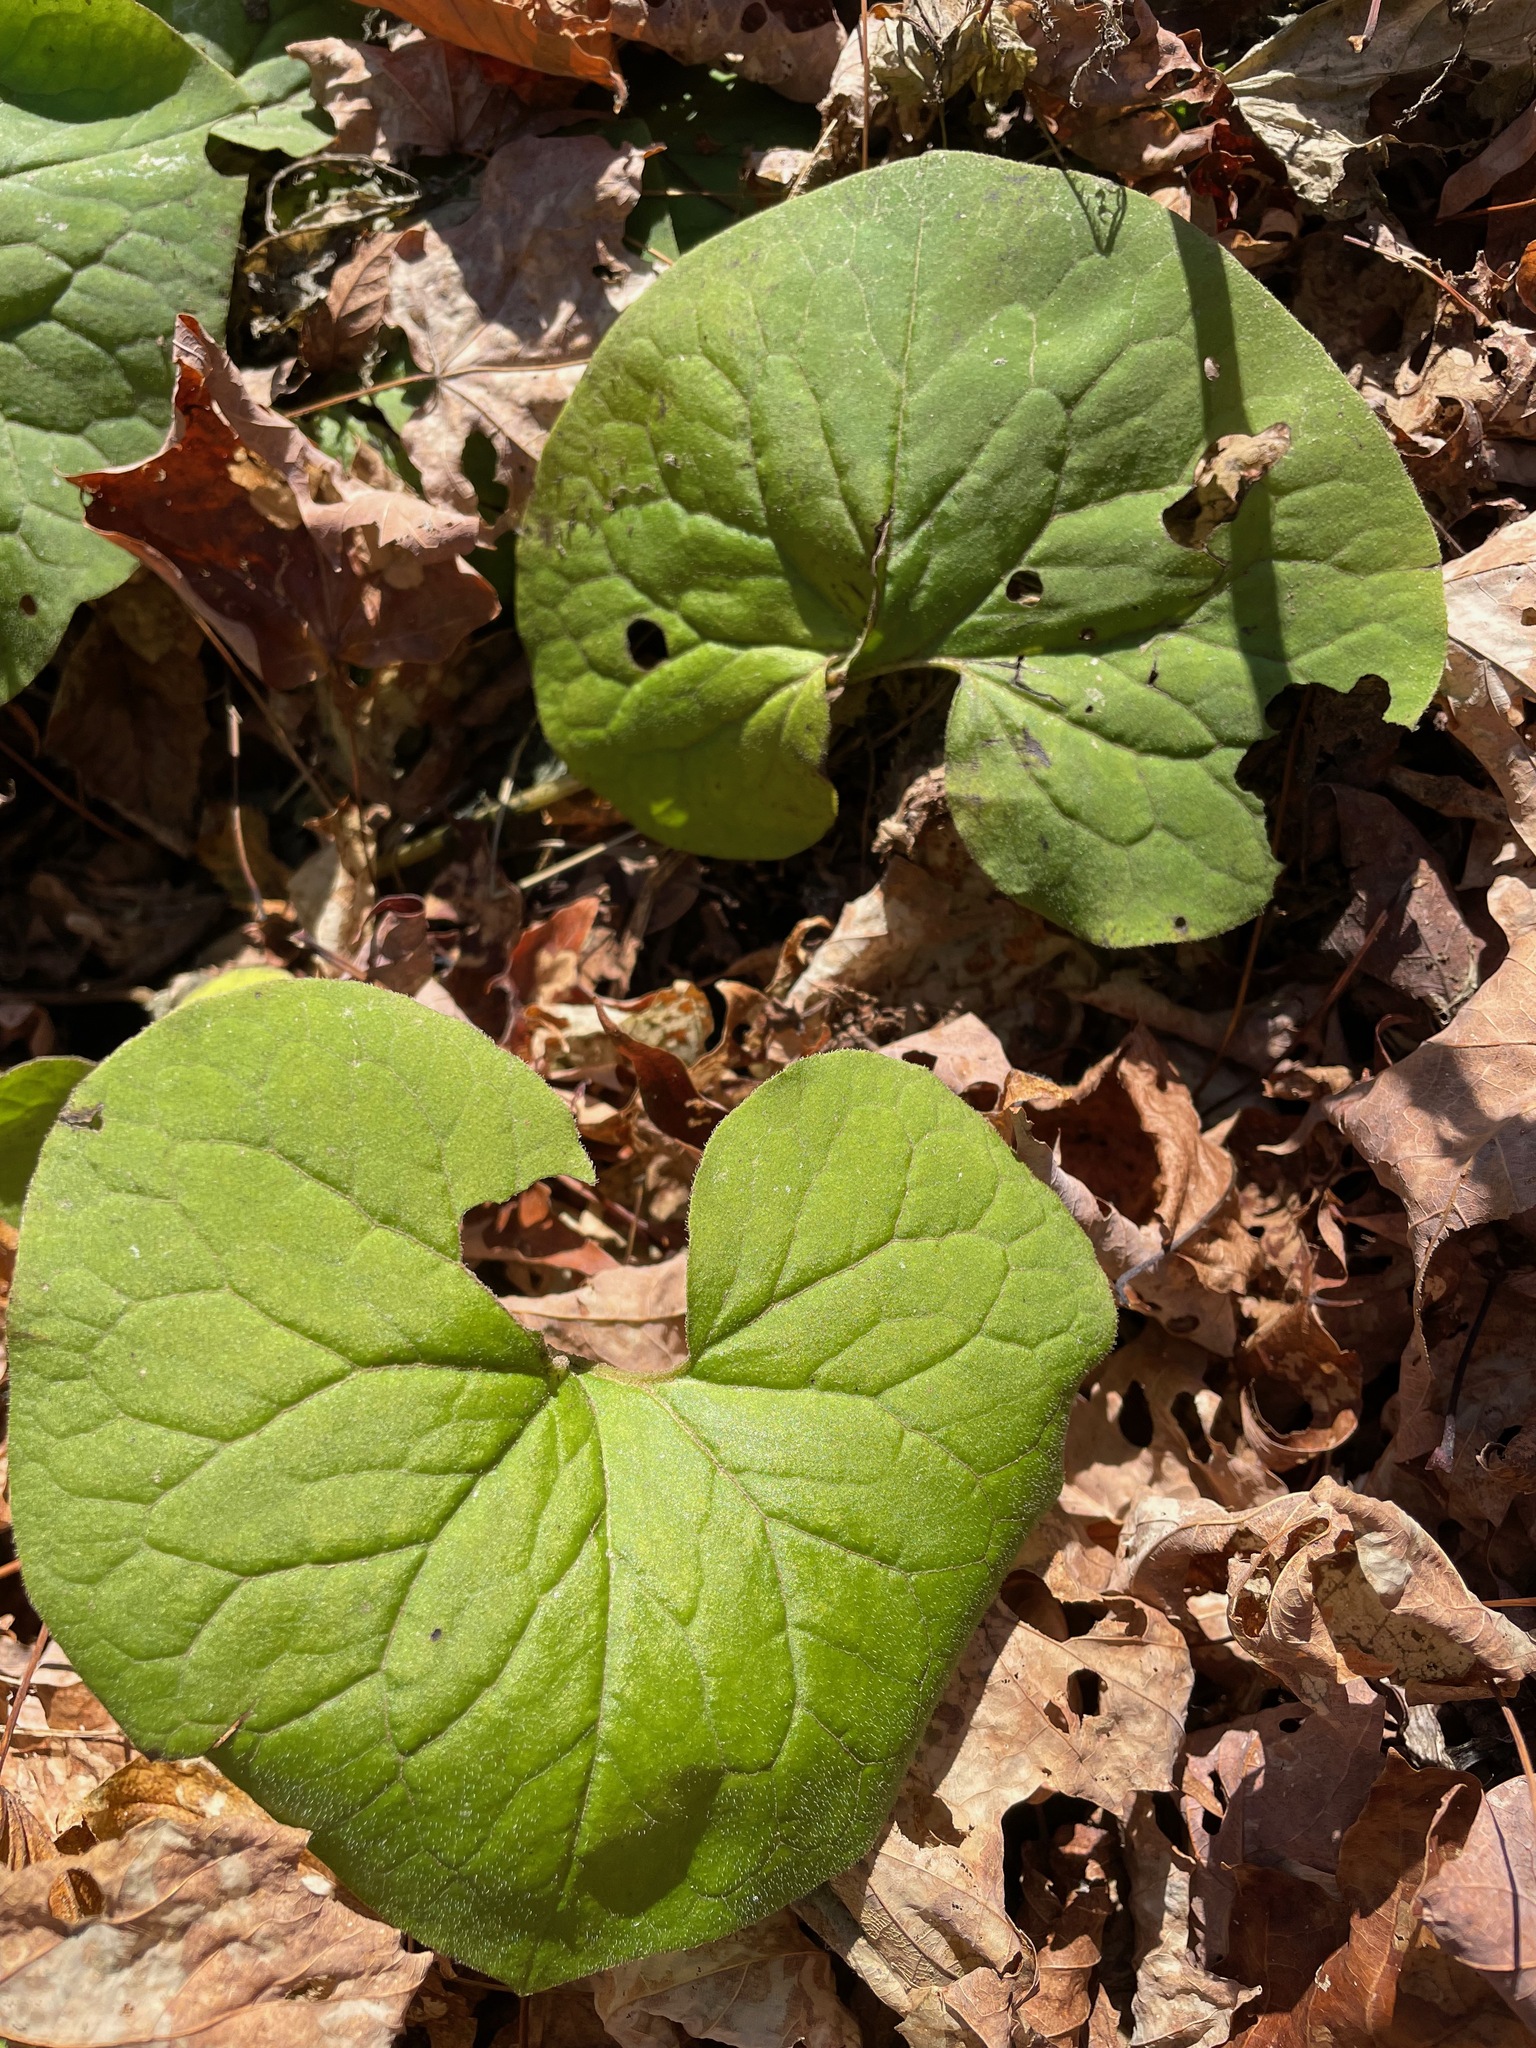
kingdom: Plantae
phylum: Tracheophyta
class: Magnoliopsida
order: Piperales
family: Aristolochiaceae
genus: Asarum
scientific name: Asarum canadense
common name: Wild ginger
